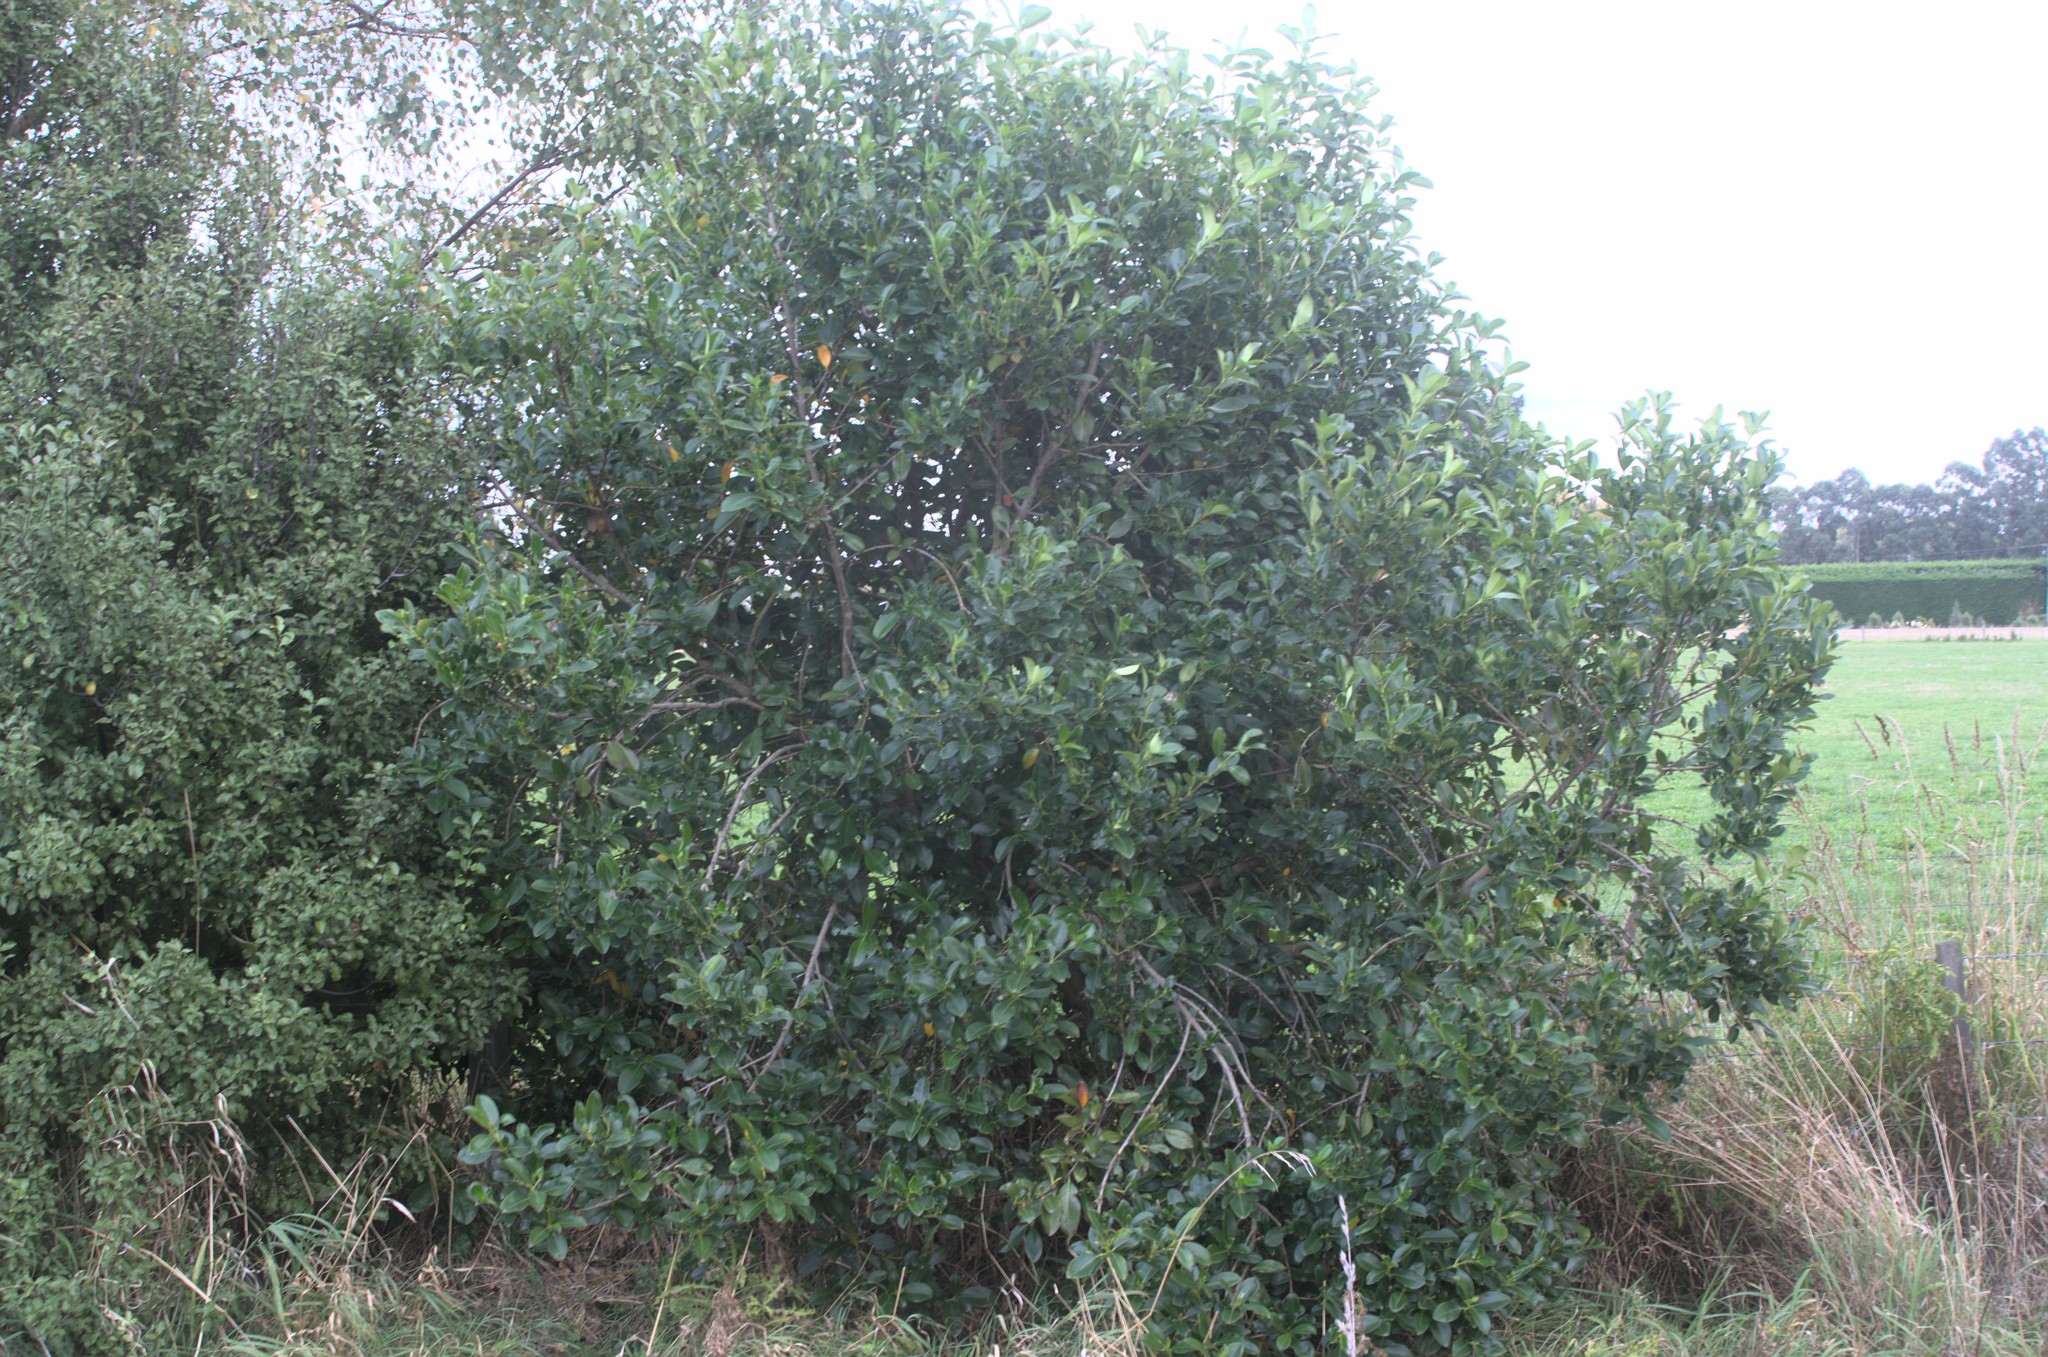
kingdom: Plantae
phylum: Tracheophyta
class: Magnoliopsida
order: Gentianales
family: Rubiaceae
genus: Coprosma
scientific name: Coprosma robusta
